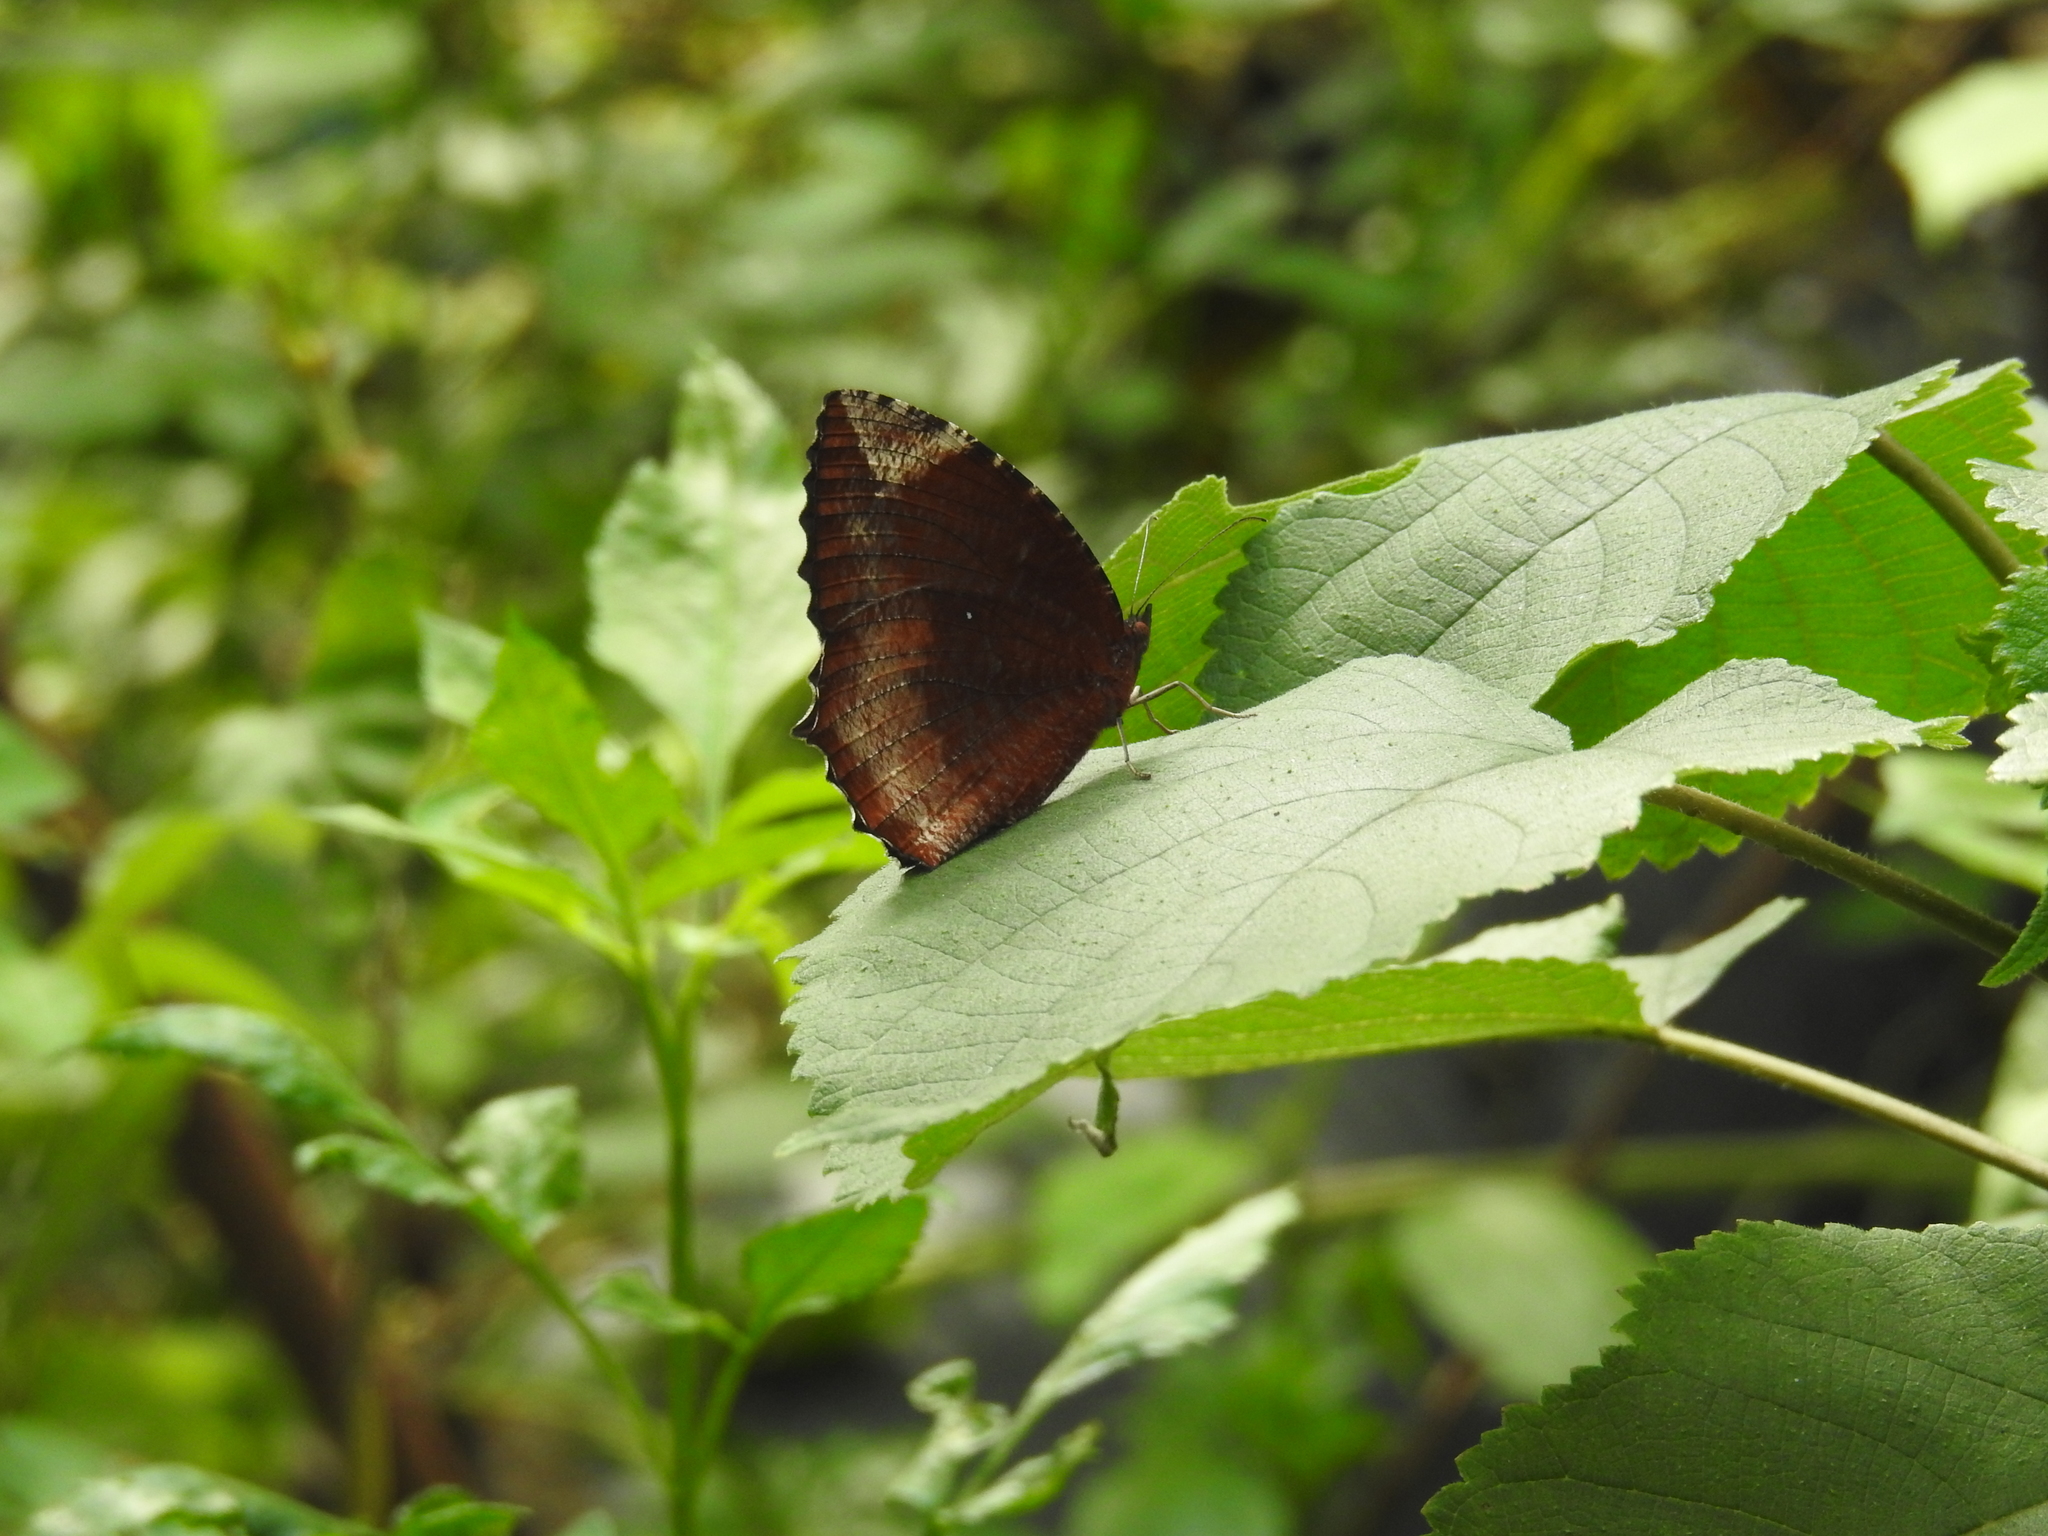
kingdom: Animalia
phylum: Arthropoda
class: Insecta
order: Lepidoptera
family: Nymphalidae
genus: Elymnias
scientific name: Elymnias hypermnestra
